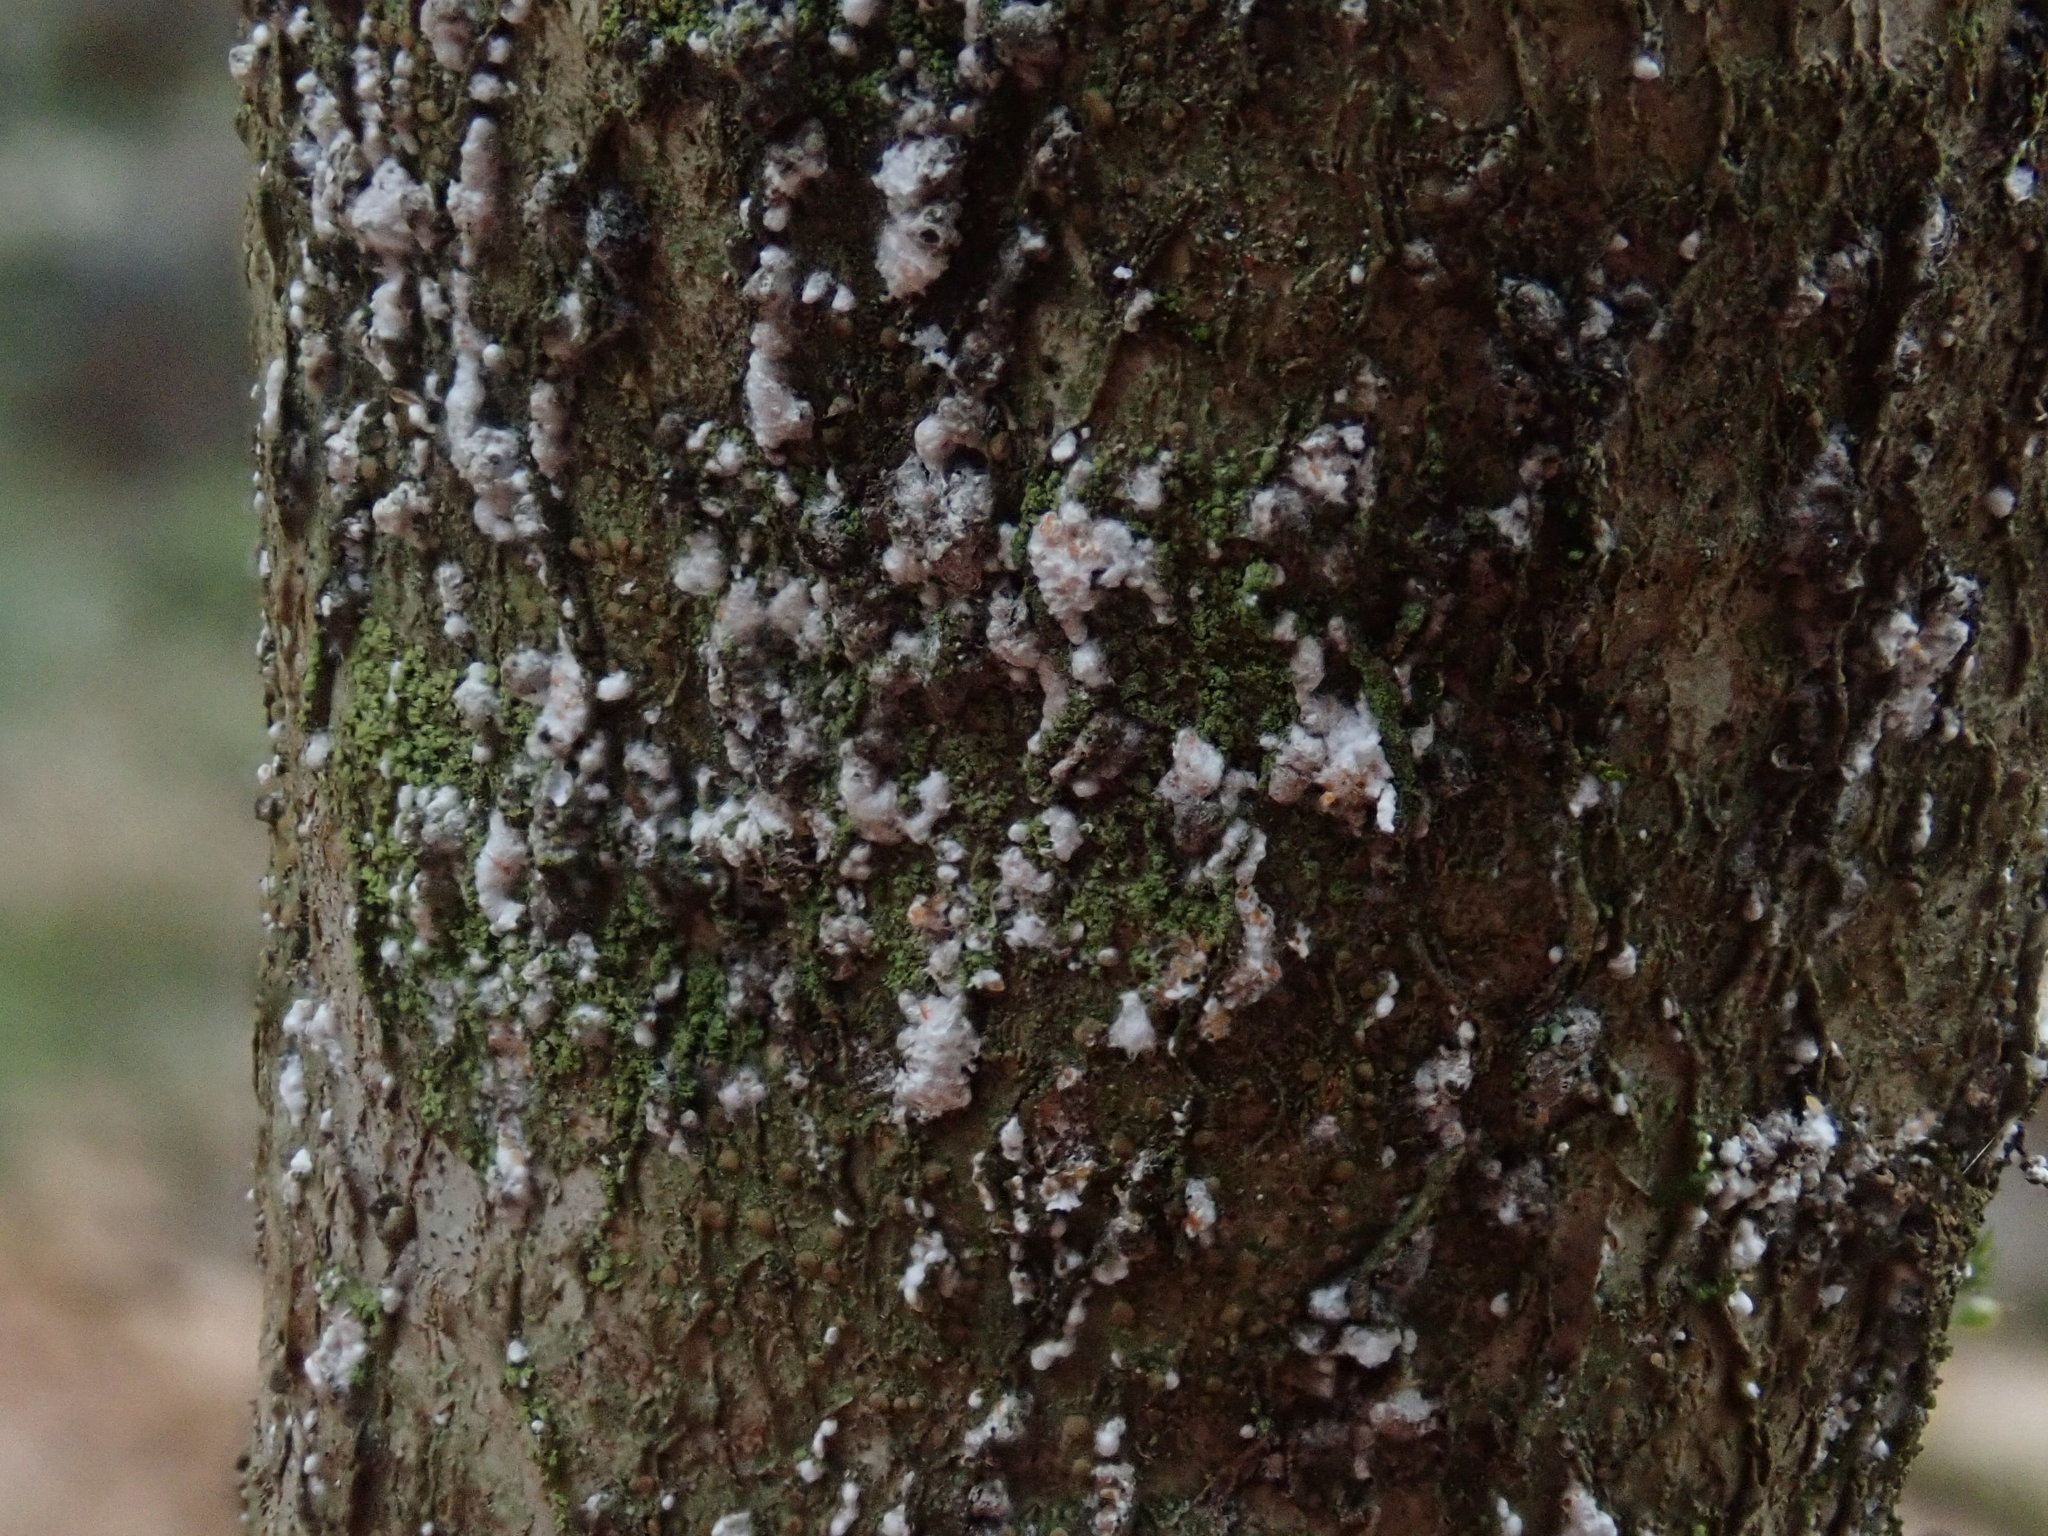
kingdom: Animalia
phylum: Arthropoda
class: Insecta
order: Hemiptera
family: Eriococcidae
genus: Cryptococcus
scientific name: Cryptococcus fagisuga
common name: Beech scale
